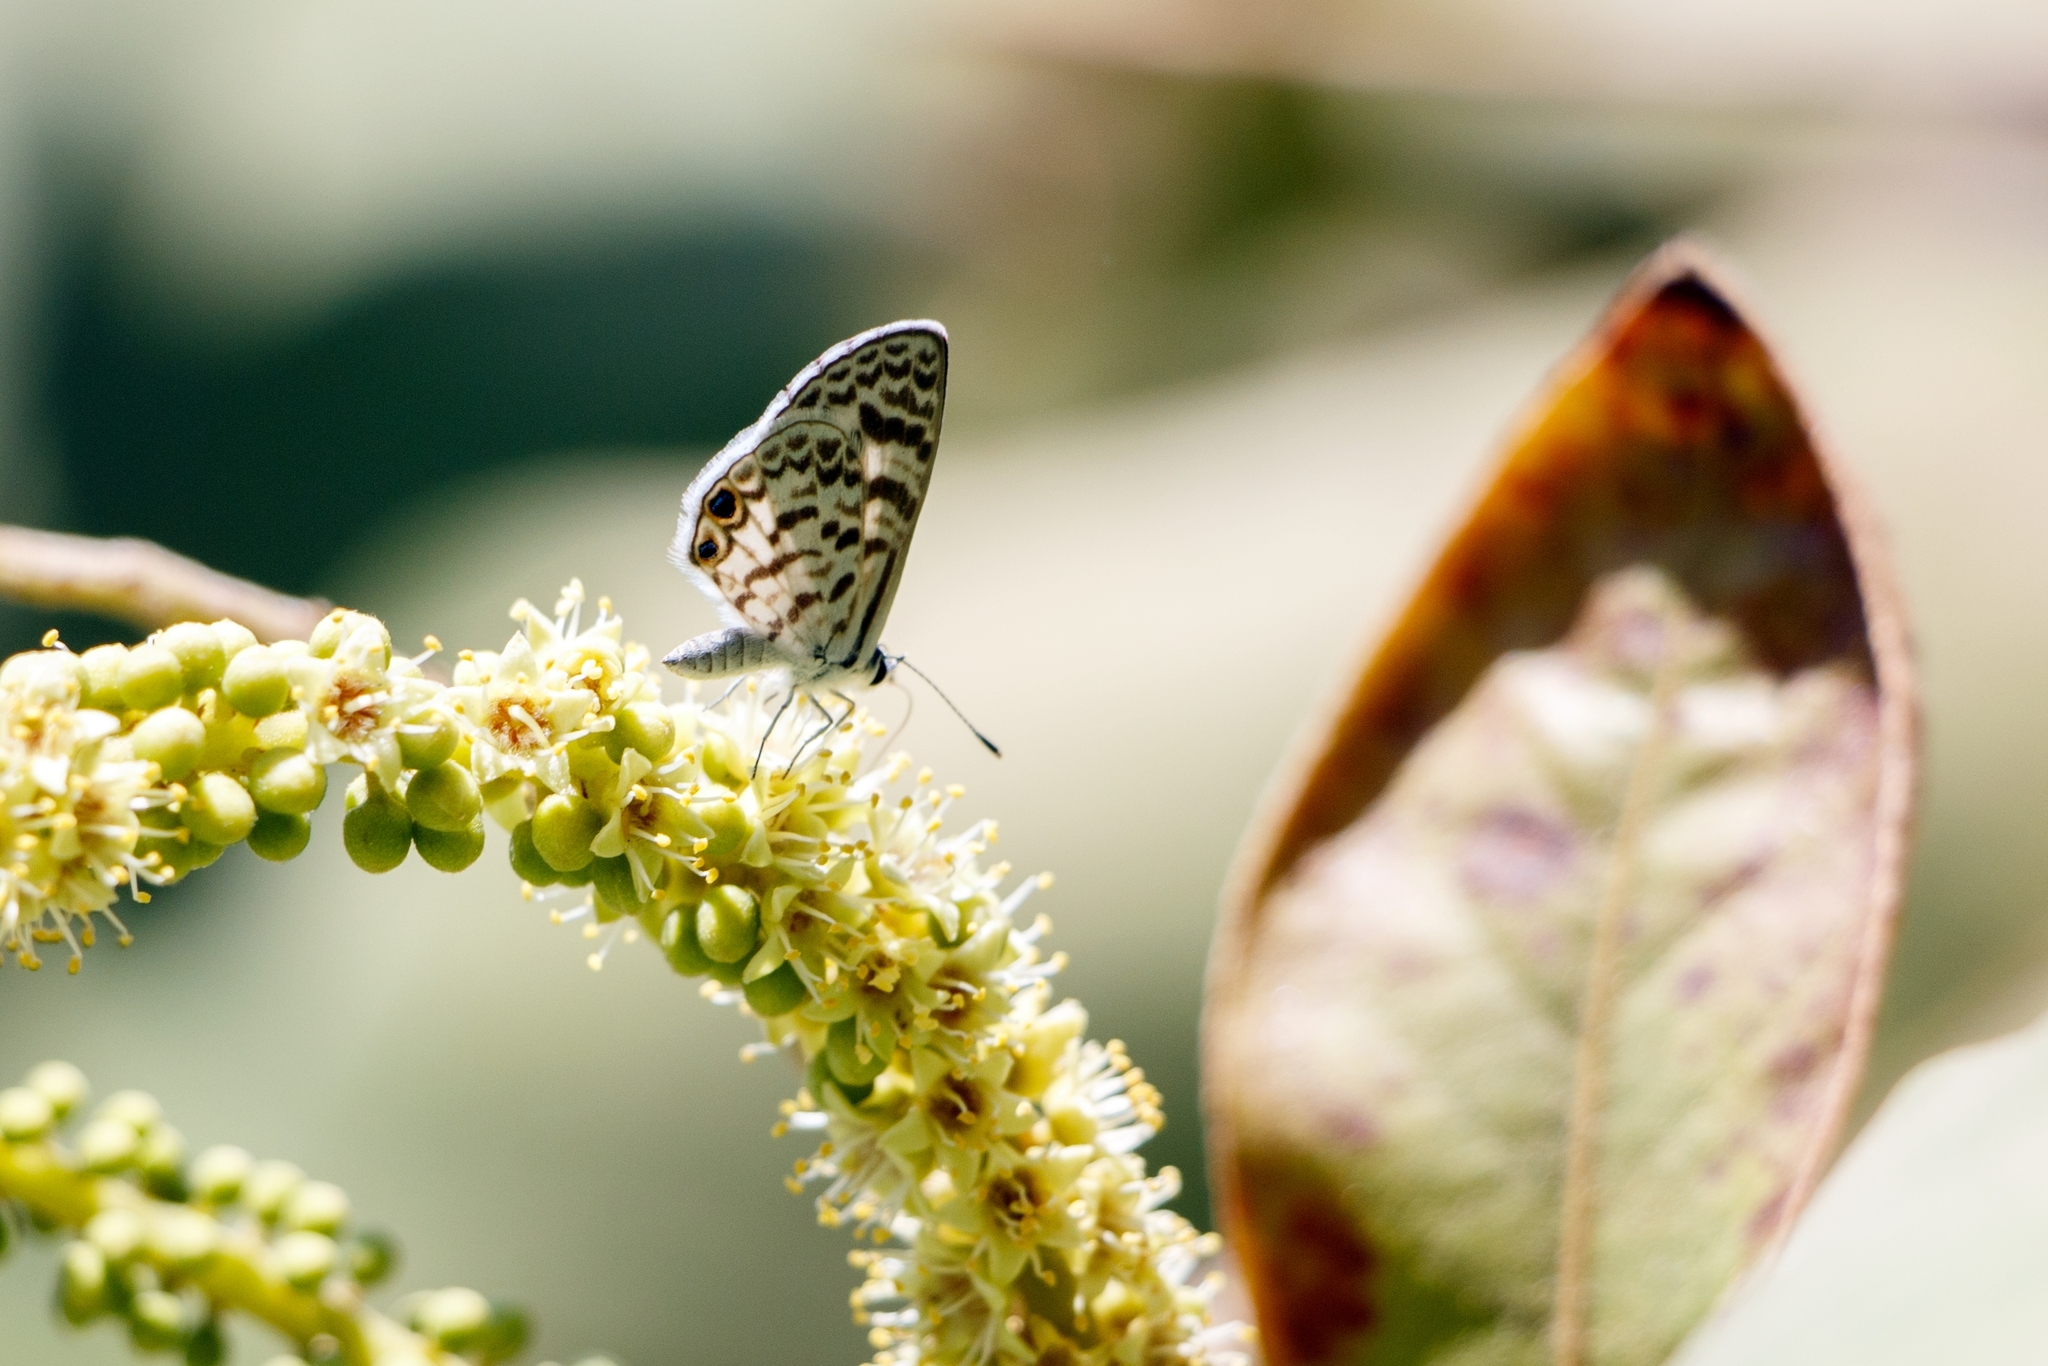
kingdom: Animalia
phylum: Arthropoda
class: Insecta
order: Lepidoptera
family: Lycaenidae
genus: Leptotes
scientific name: Leptotes theonus
